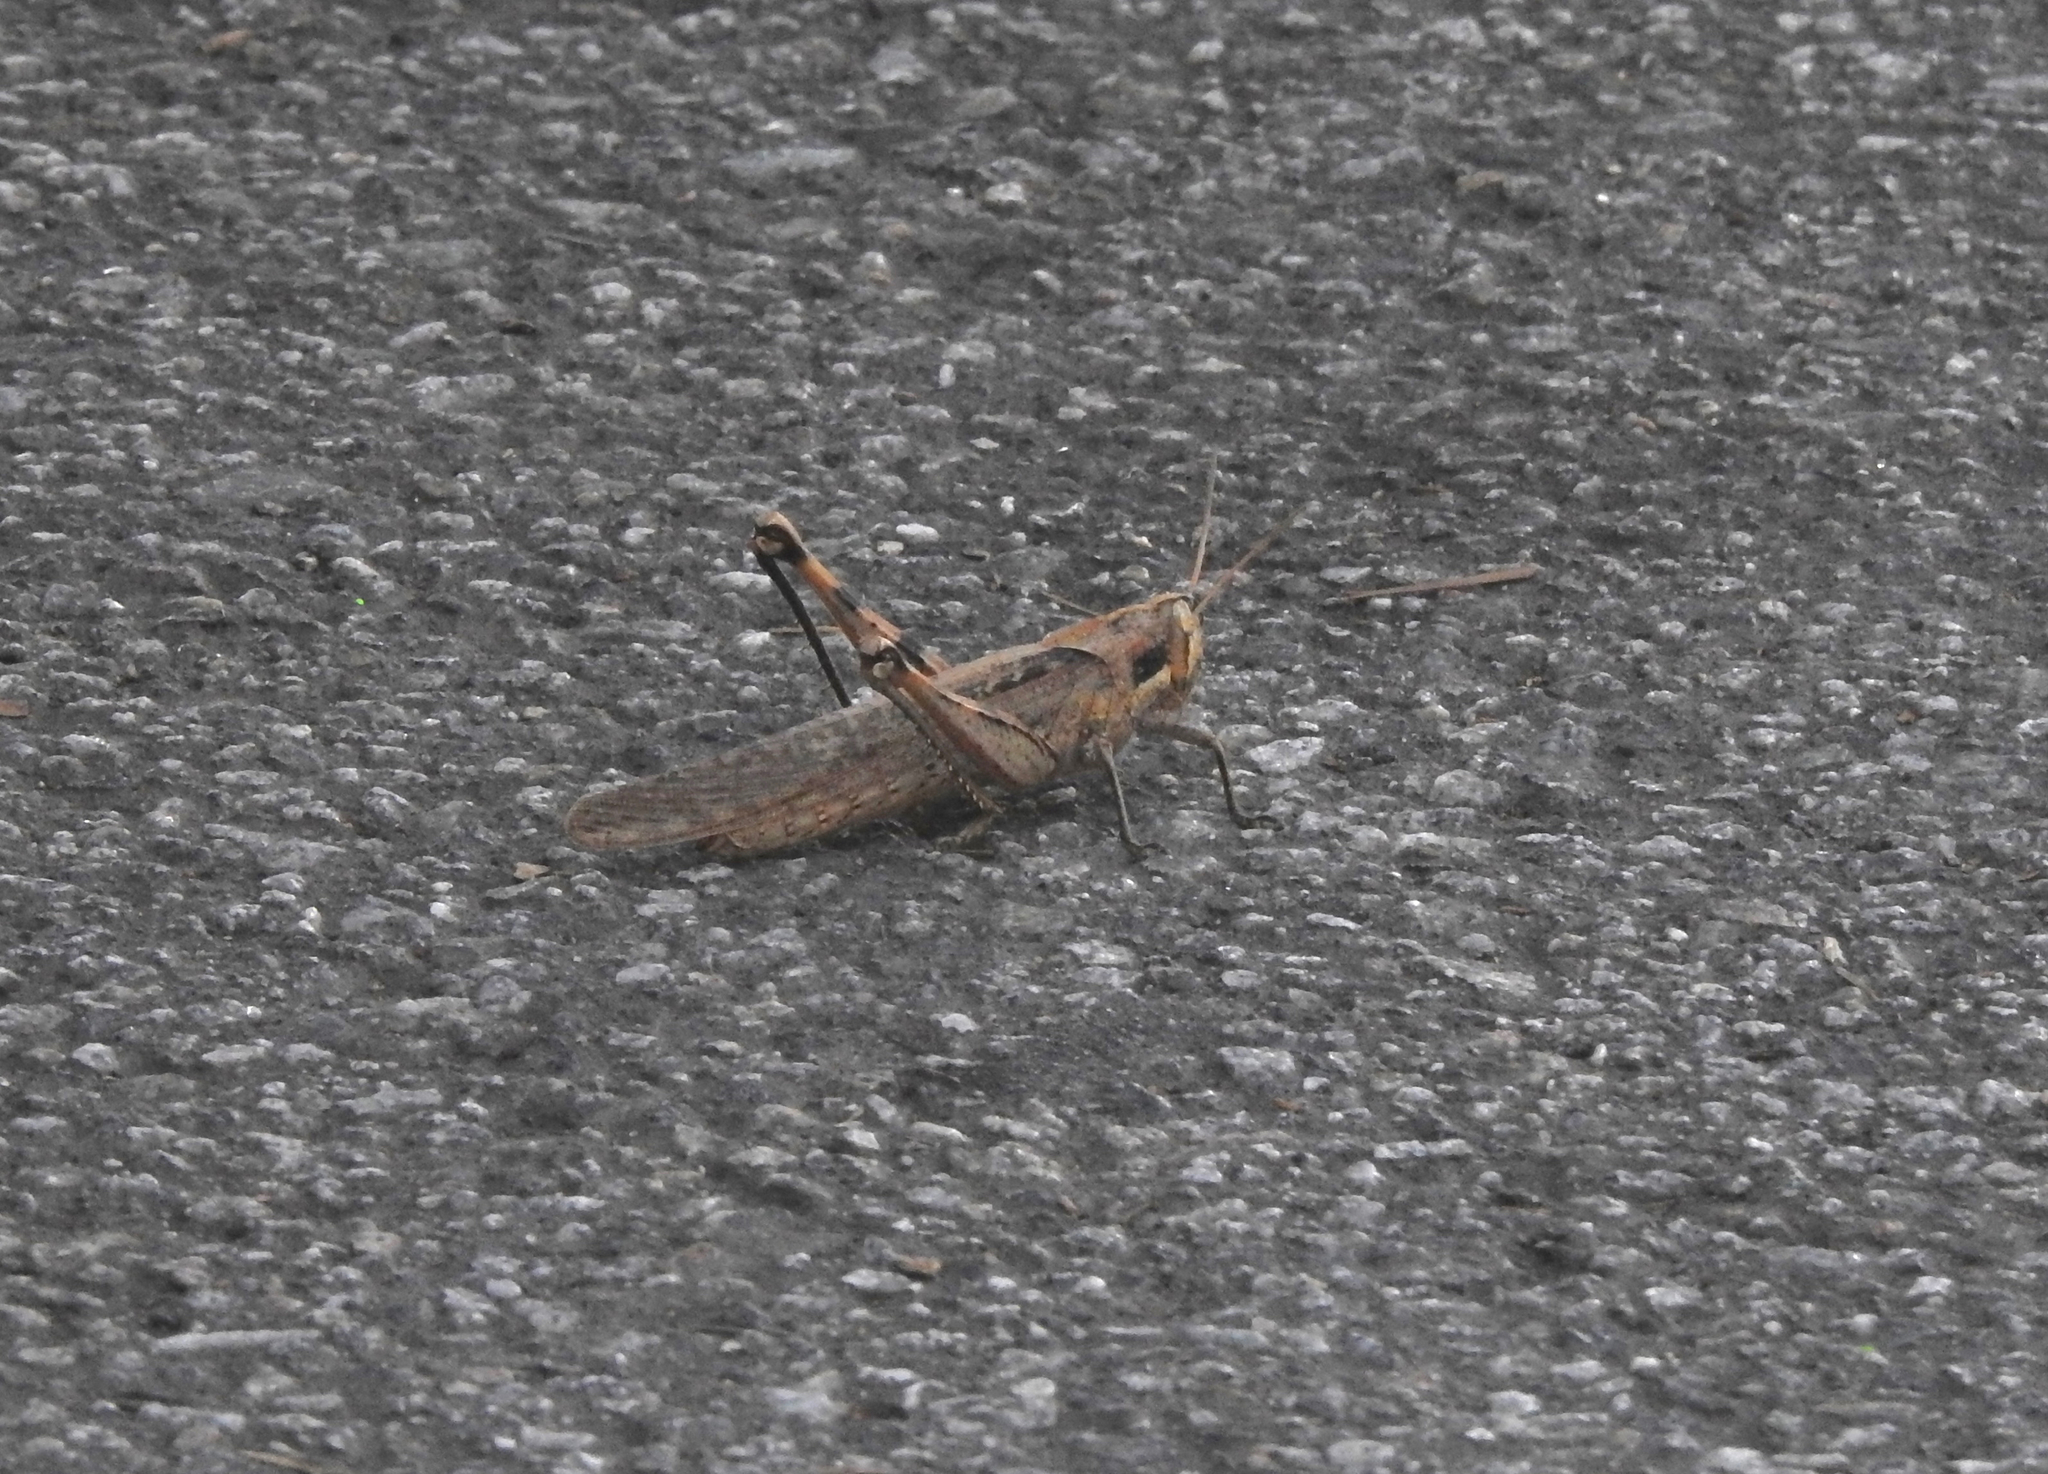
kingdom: Animalia
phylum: Arthropoda
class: Insecta
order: Orthoptera
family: Acrididae
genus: Schistocerca
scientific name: Schistocerca nitens
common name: Vagrant grasshopper
